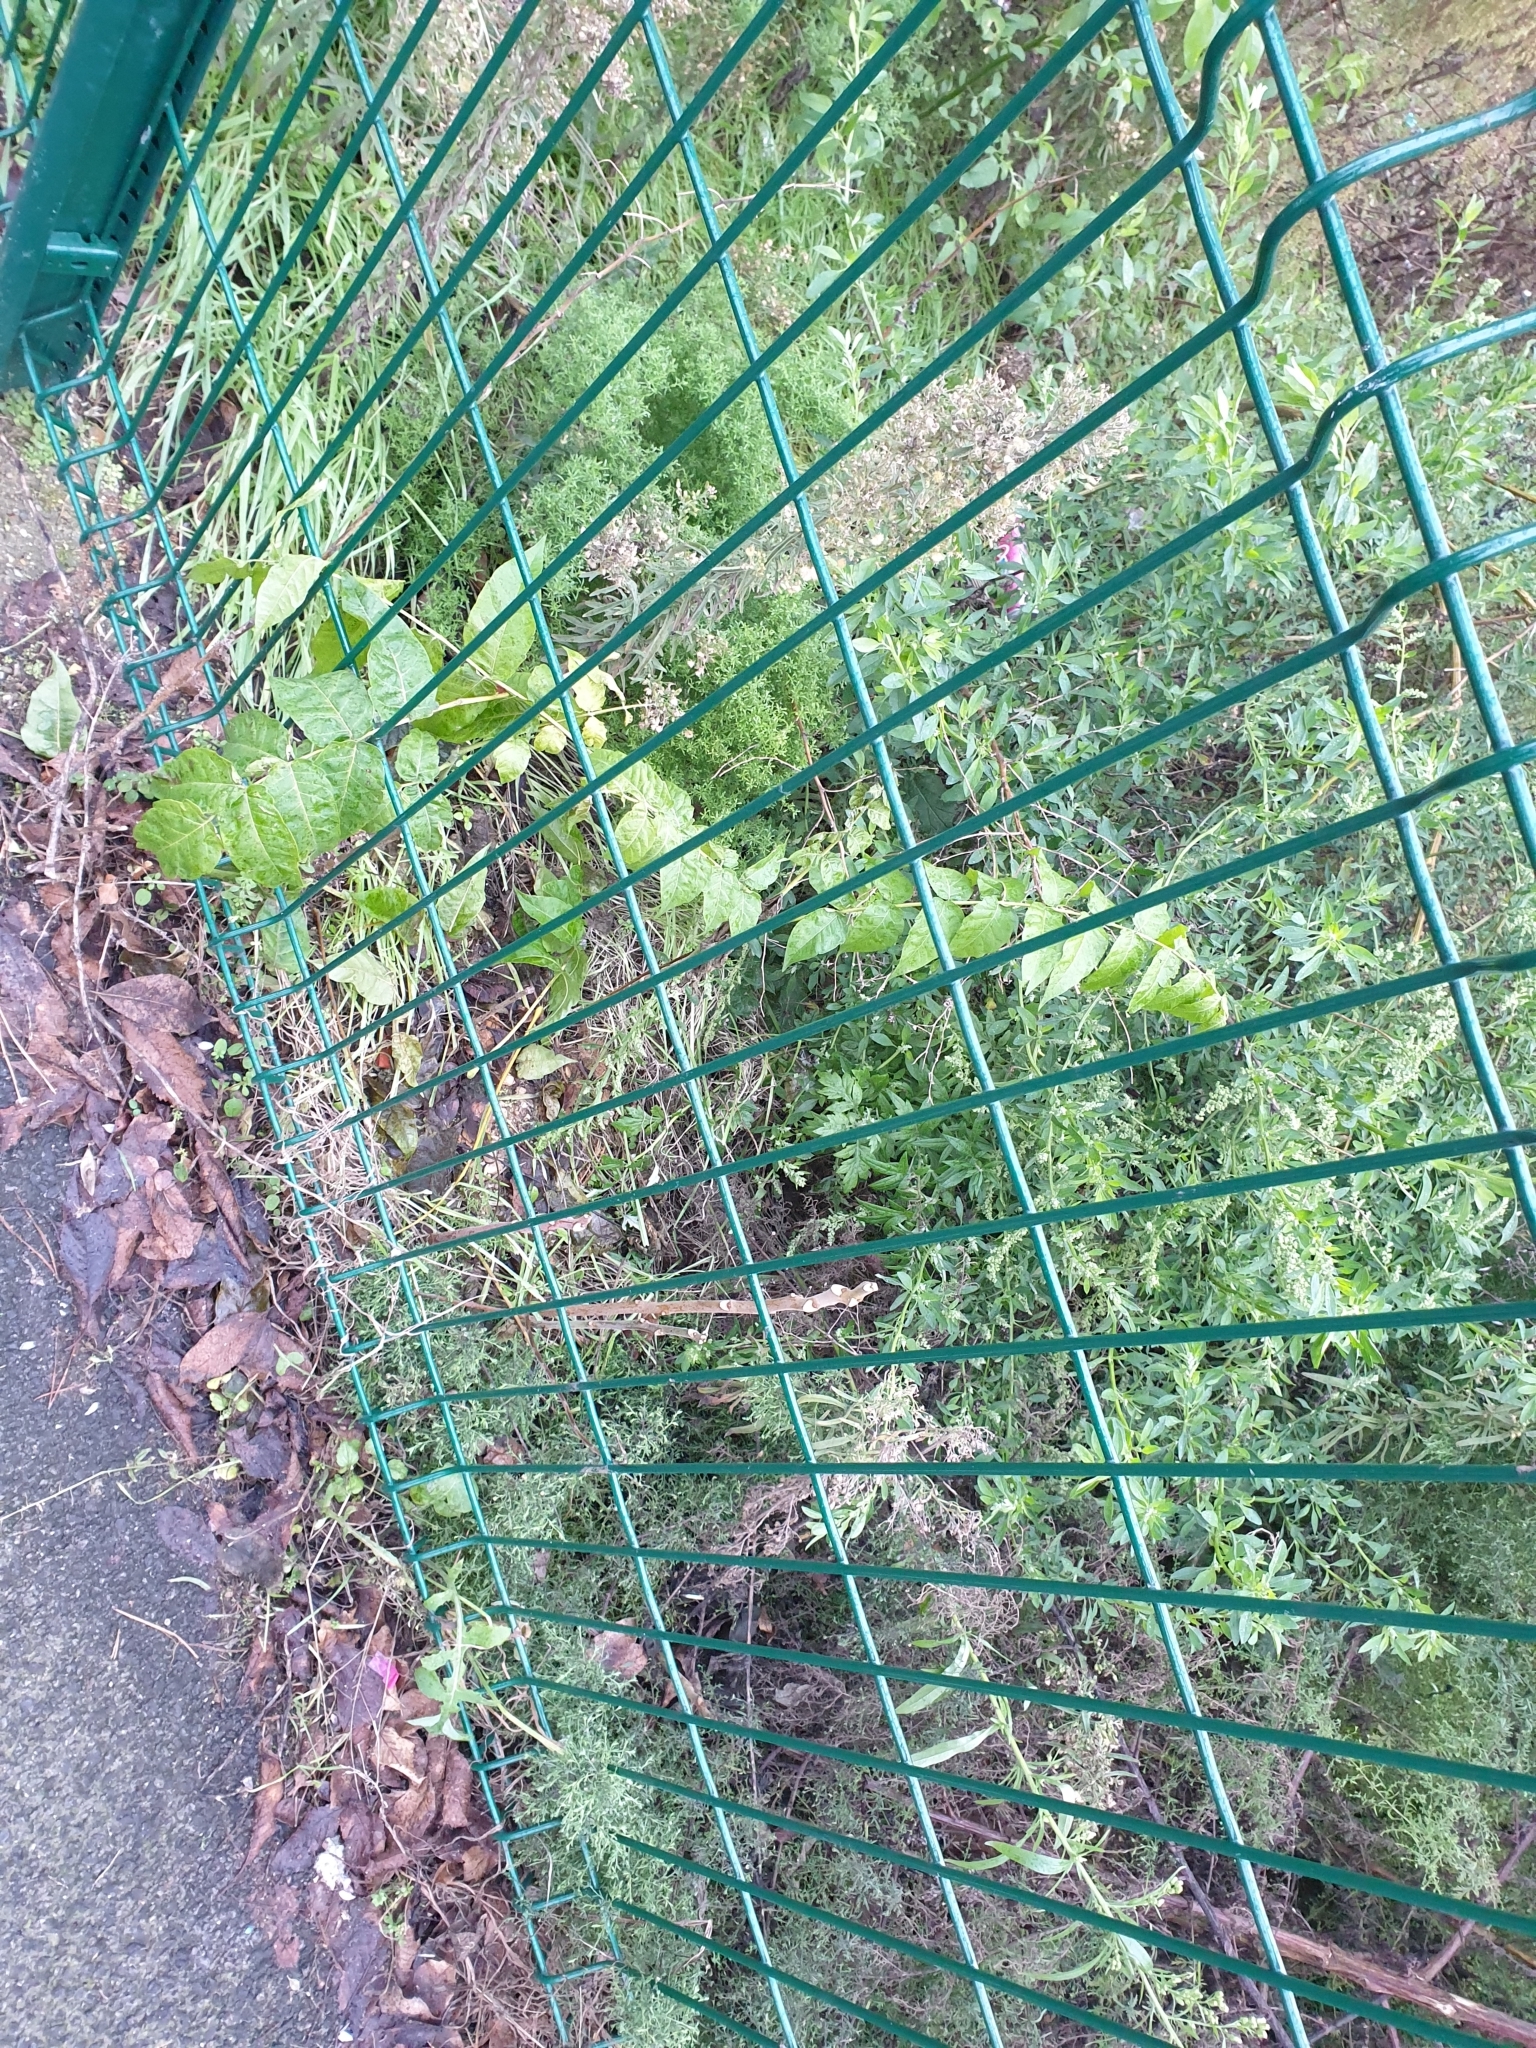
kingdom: Plantae
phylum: Tracheophyta
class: Magnoliopsida
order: Sapindales
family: Simaroubaceae
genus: Ailanthus
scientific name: Ailanthus altissima
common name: Tree-of-heaven
